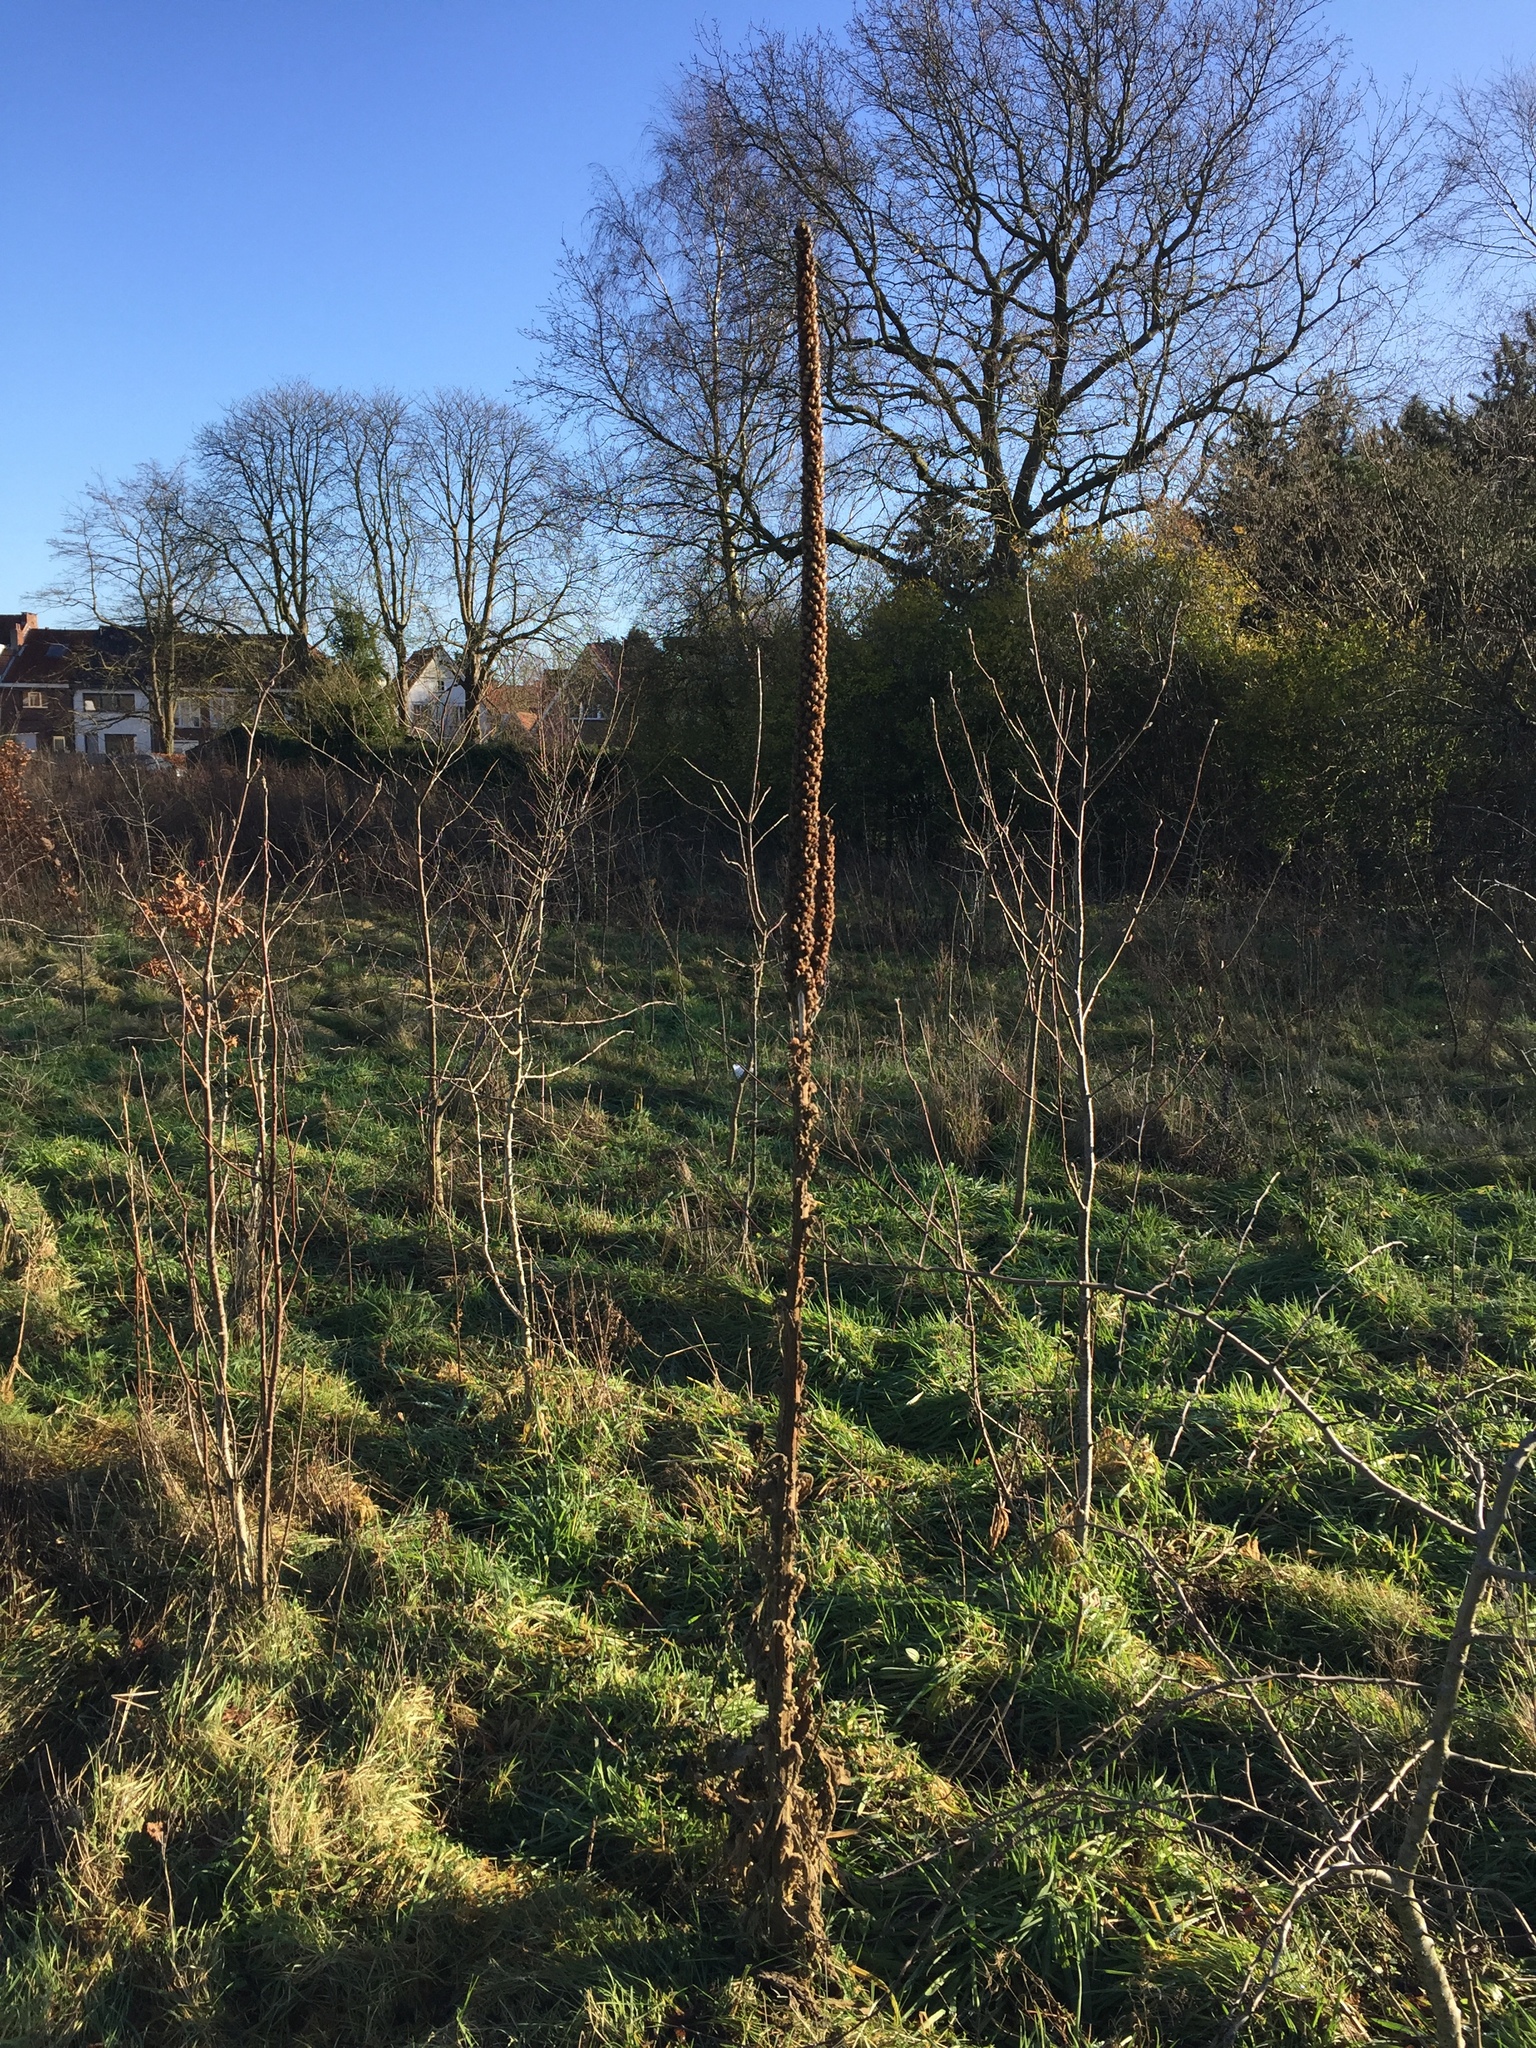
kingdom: Plantae
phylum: Tracheophyta
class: Magnoliopsida
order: Lamiales
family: Scrophulariaceae
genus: Verbascum
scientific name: Verbascum thapsus
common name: Common mullein
